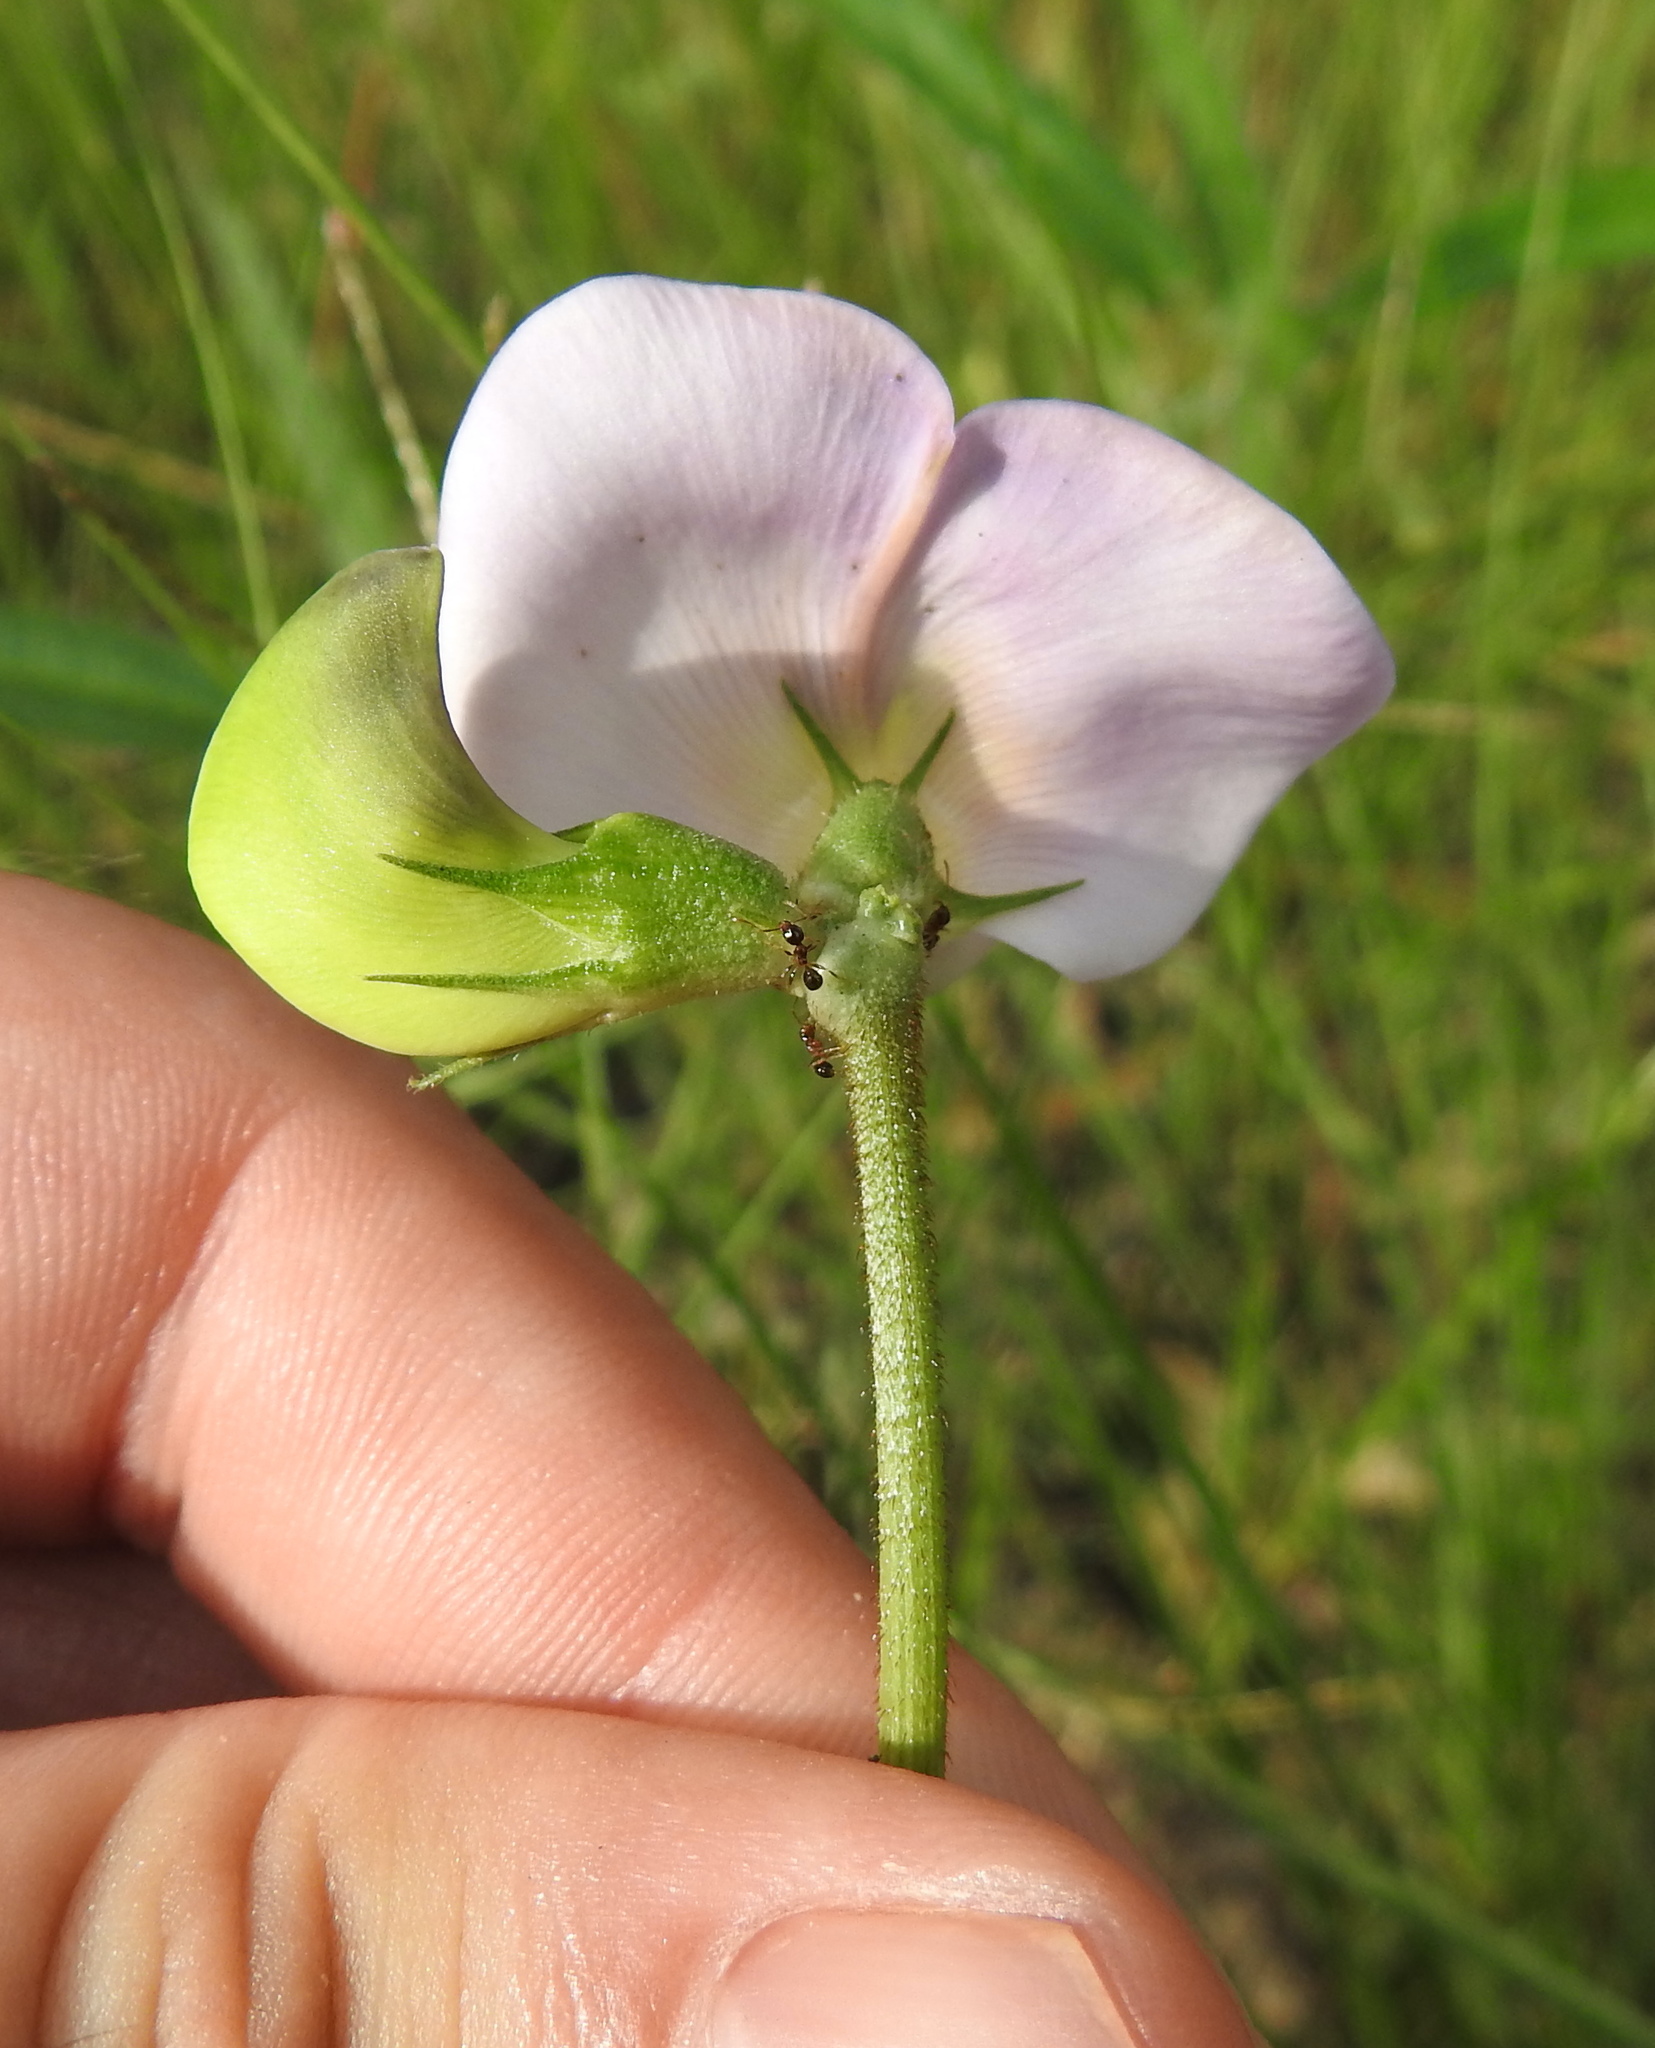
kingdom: Plantae
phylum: Tracheophyta
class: Magnoliopsida
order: Fabales
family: Fabaceae
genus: Vigna
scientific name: Vigna vexillata
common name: Zombi pea
